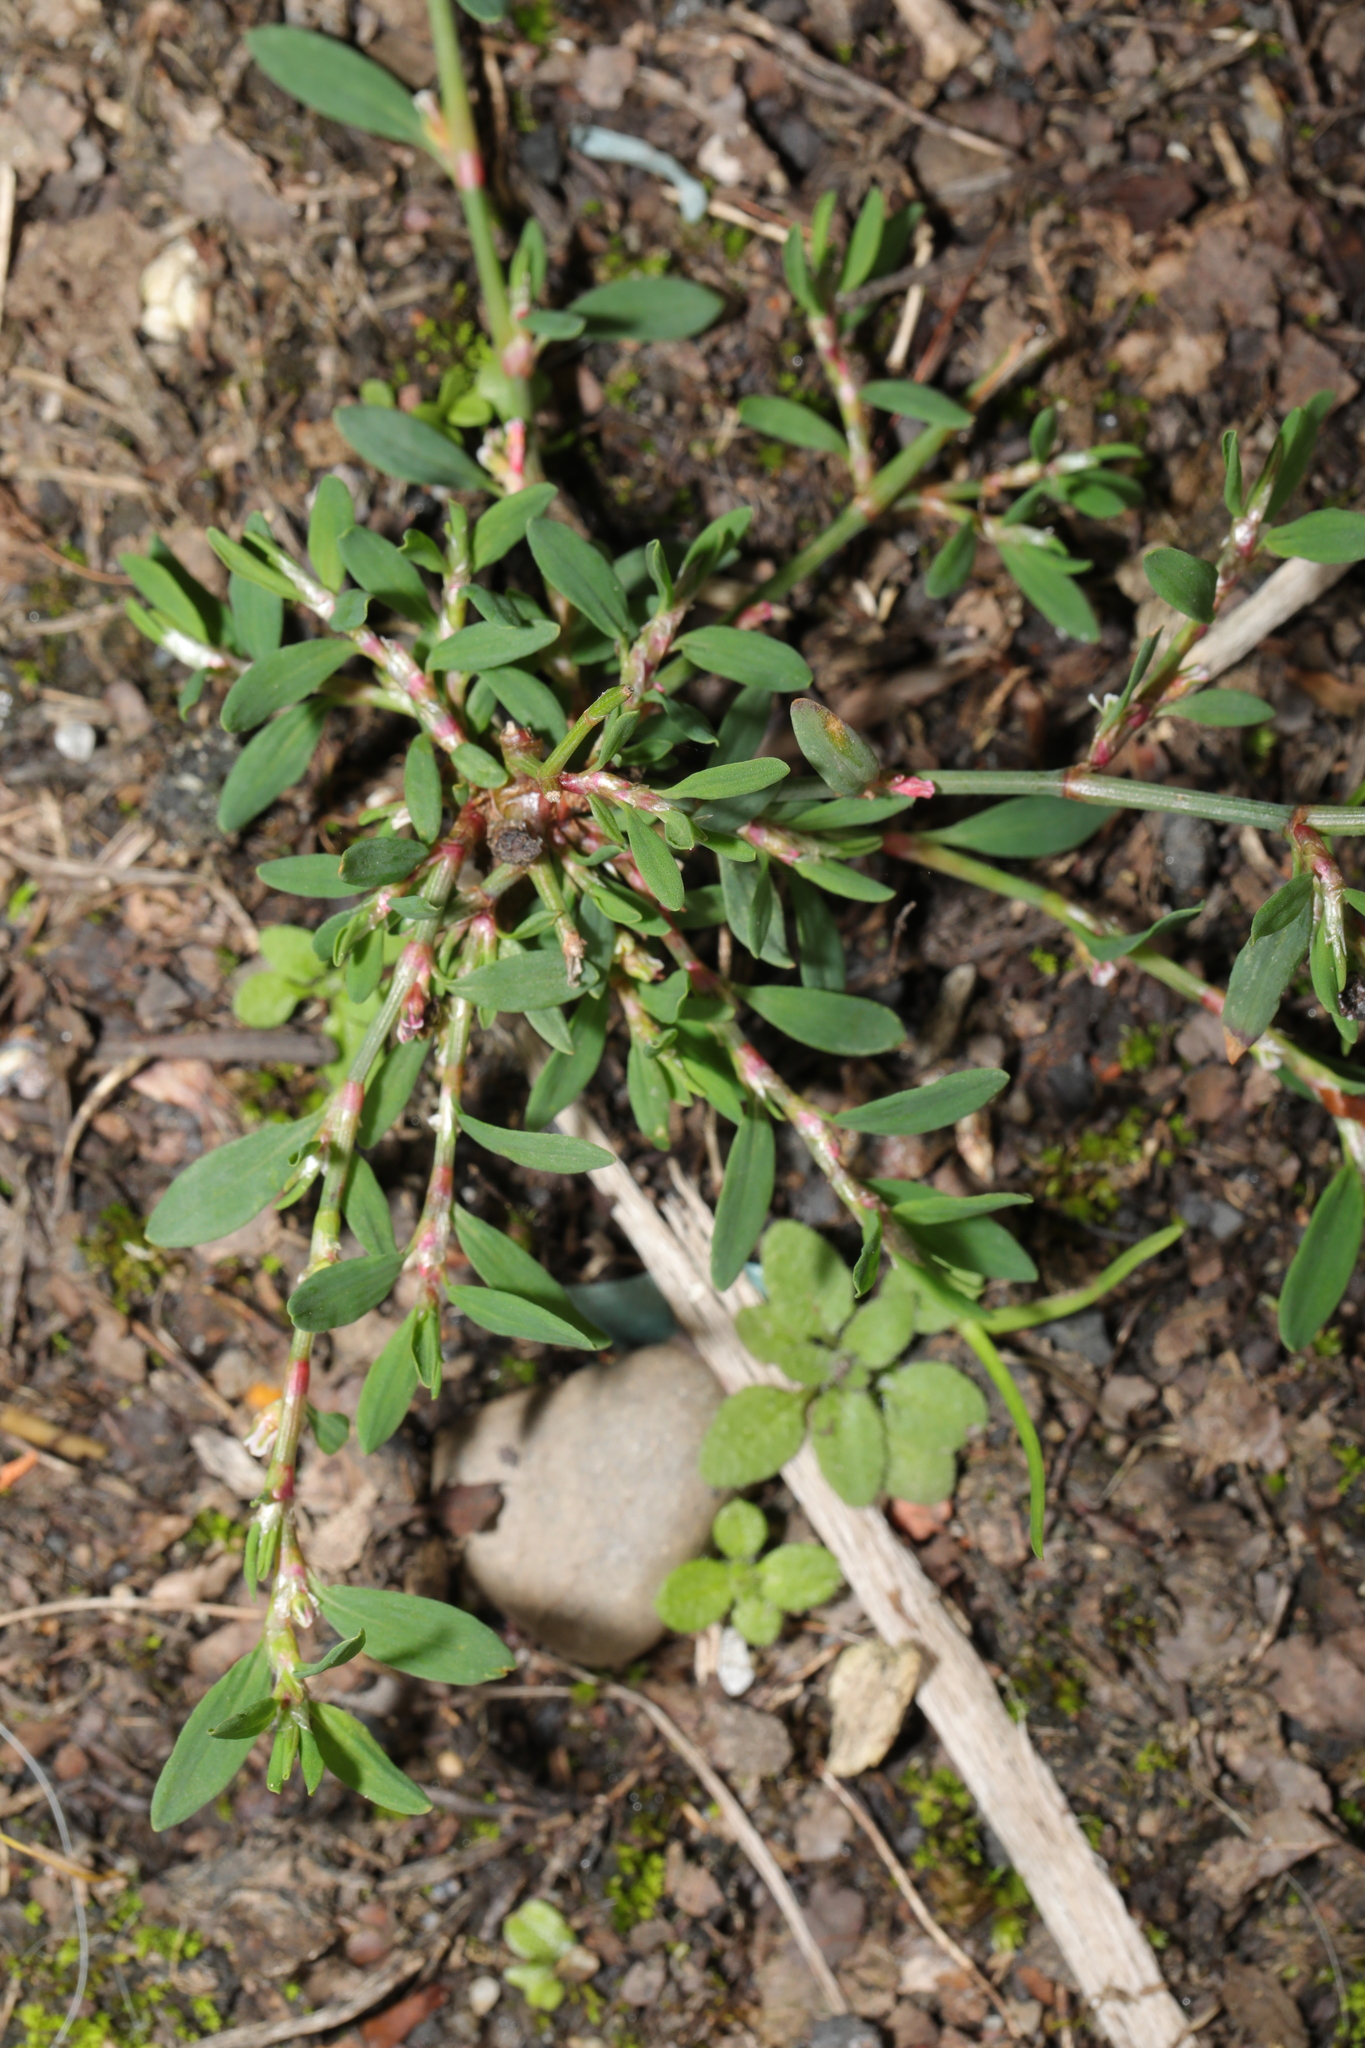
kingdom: Plantae
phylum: Tracheophyta
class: Magnoliopsida
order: Caryophyllales
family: Polygonaceae
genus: Polygonum
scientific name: Polygonum aviculare
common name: Prostrate knotweed
